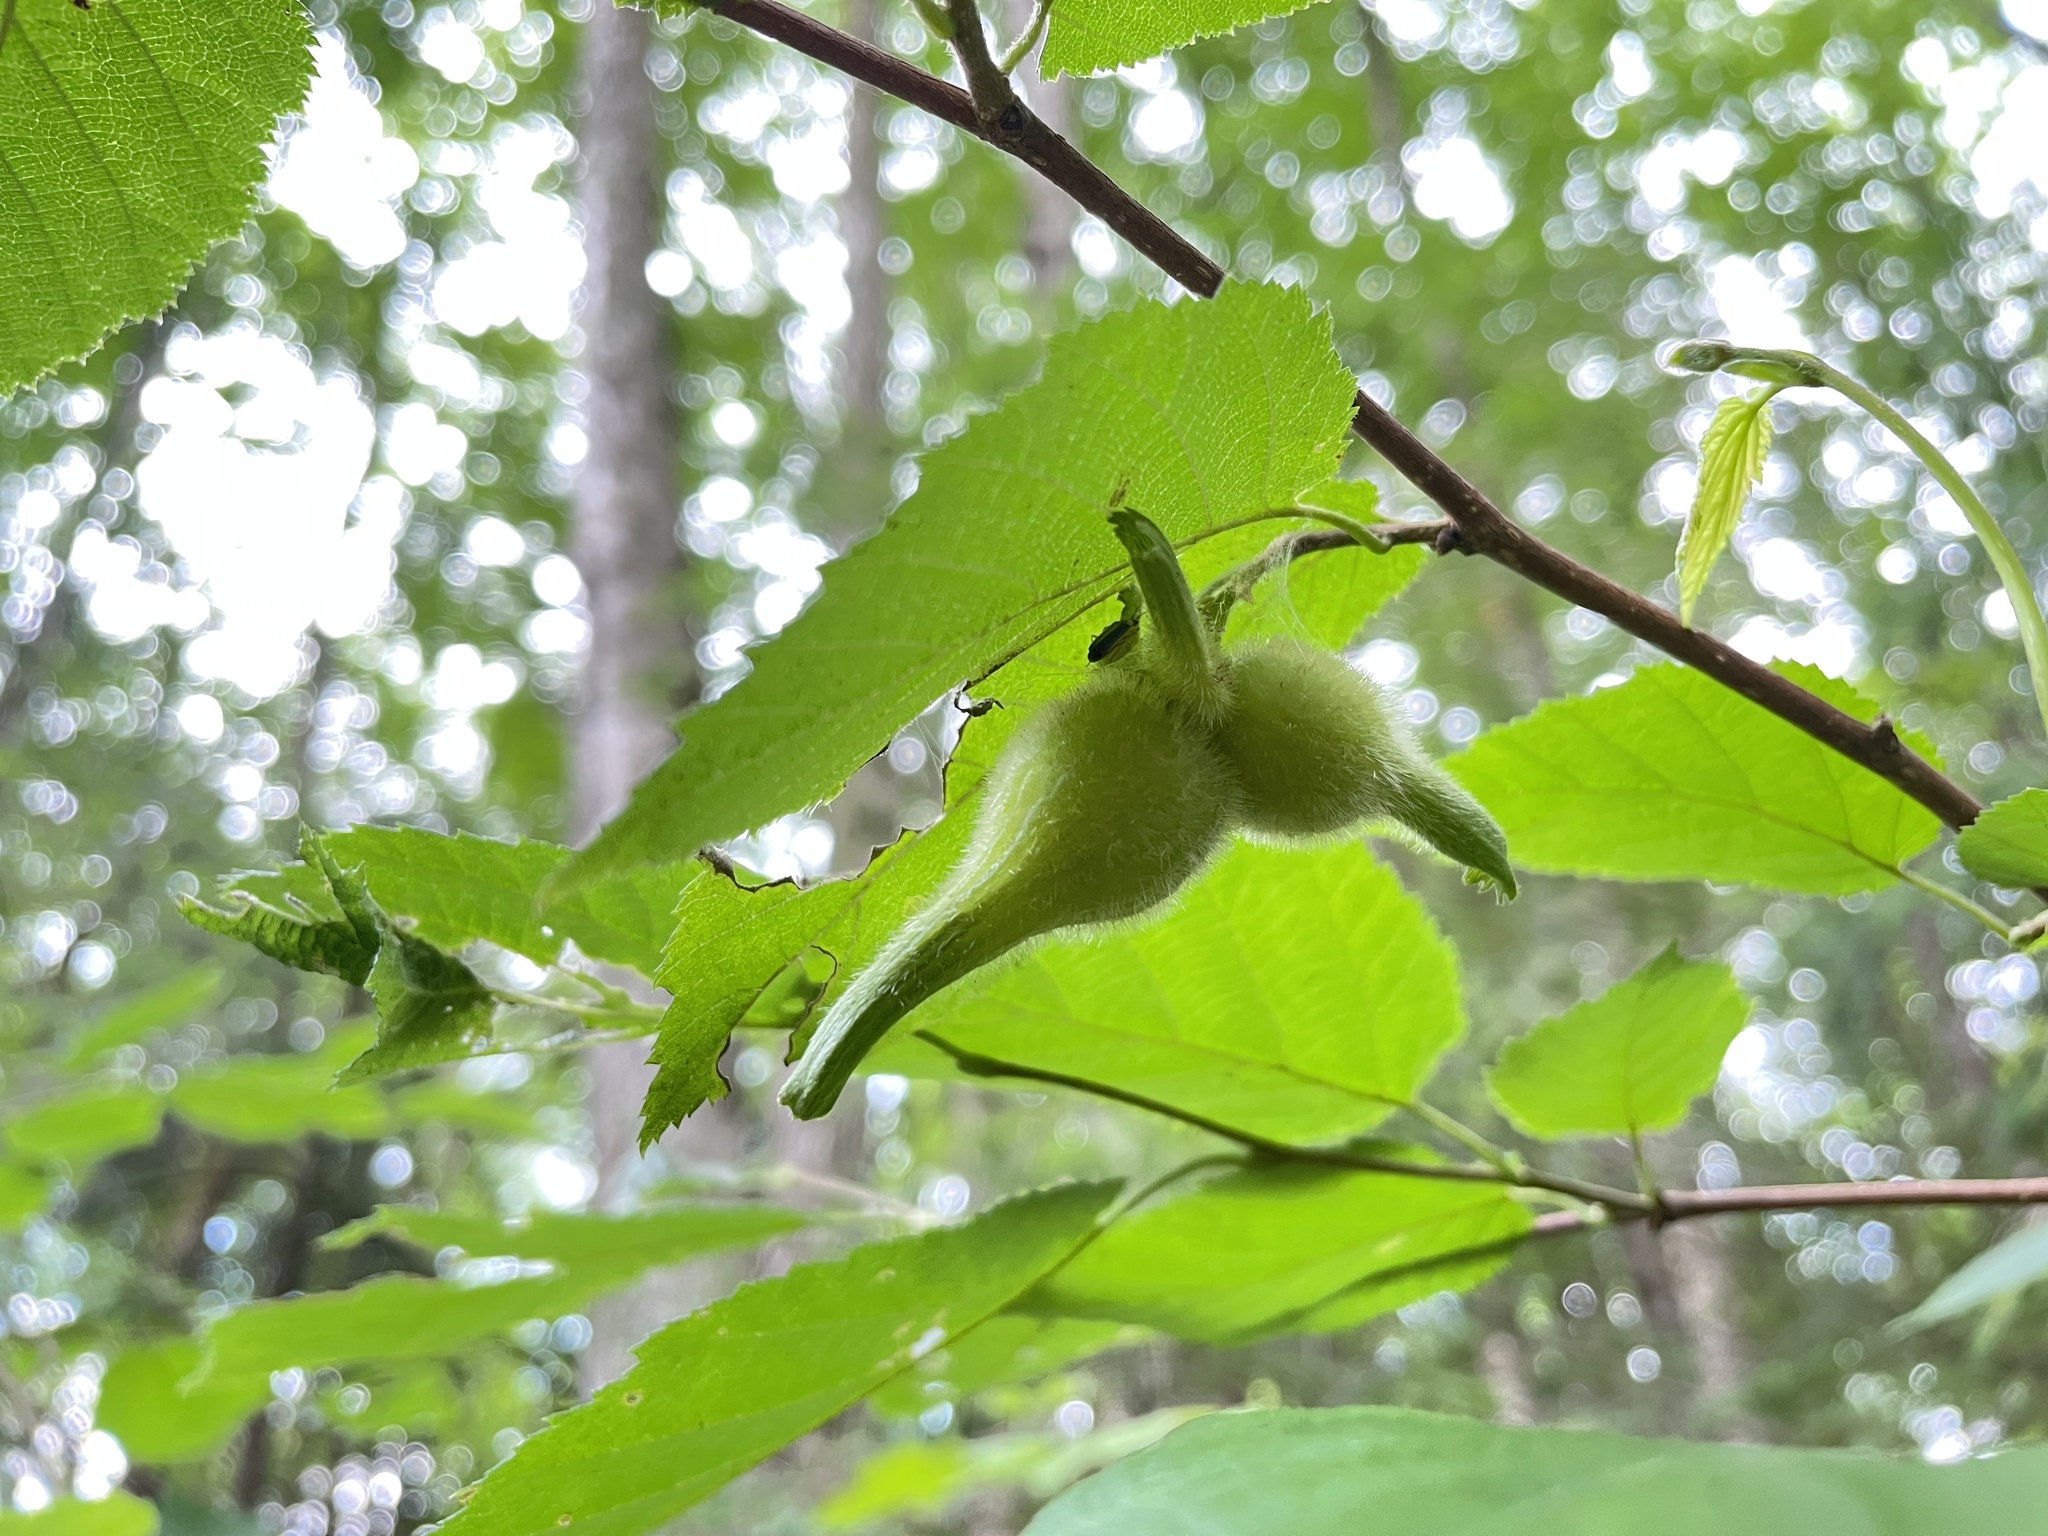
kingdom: Plantae
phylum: Tracheophyta
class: Magnoliopsida
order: Fagales
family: Betulaceae
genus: Corylus
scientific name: Corylus cornuta
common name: Beaked hazel
